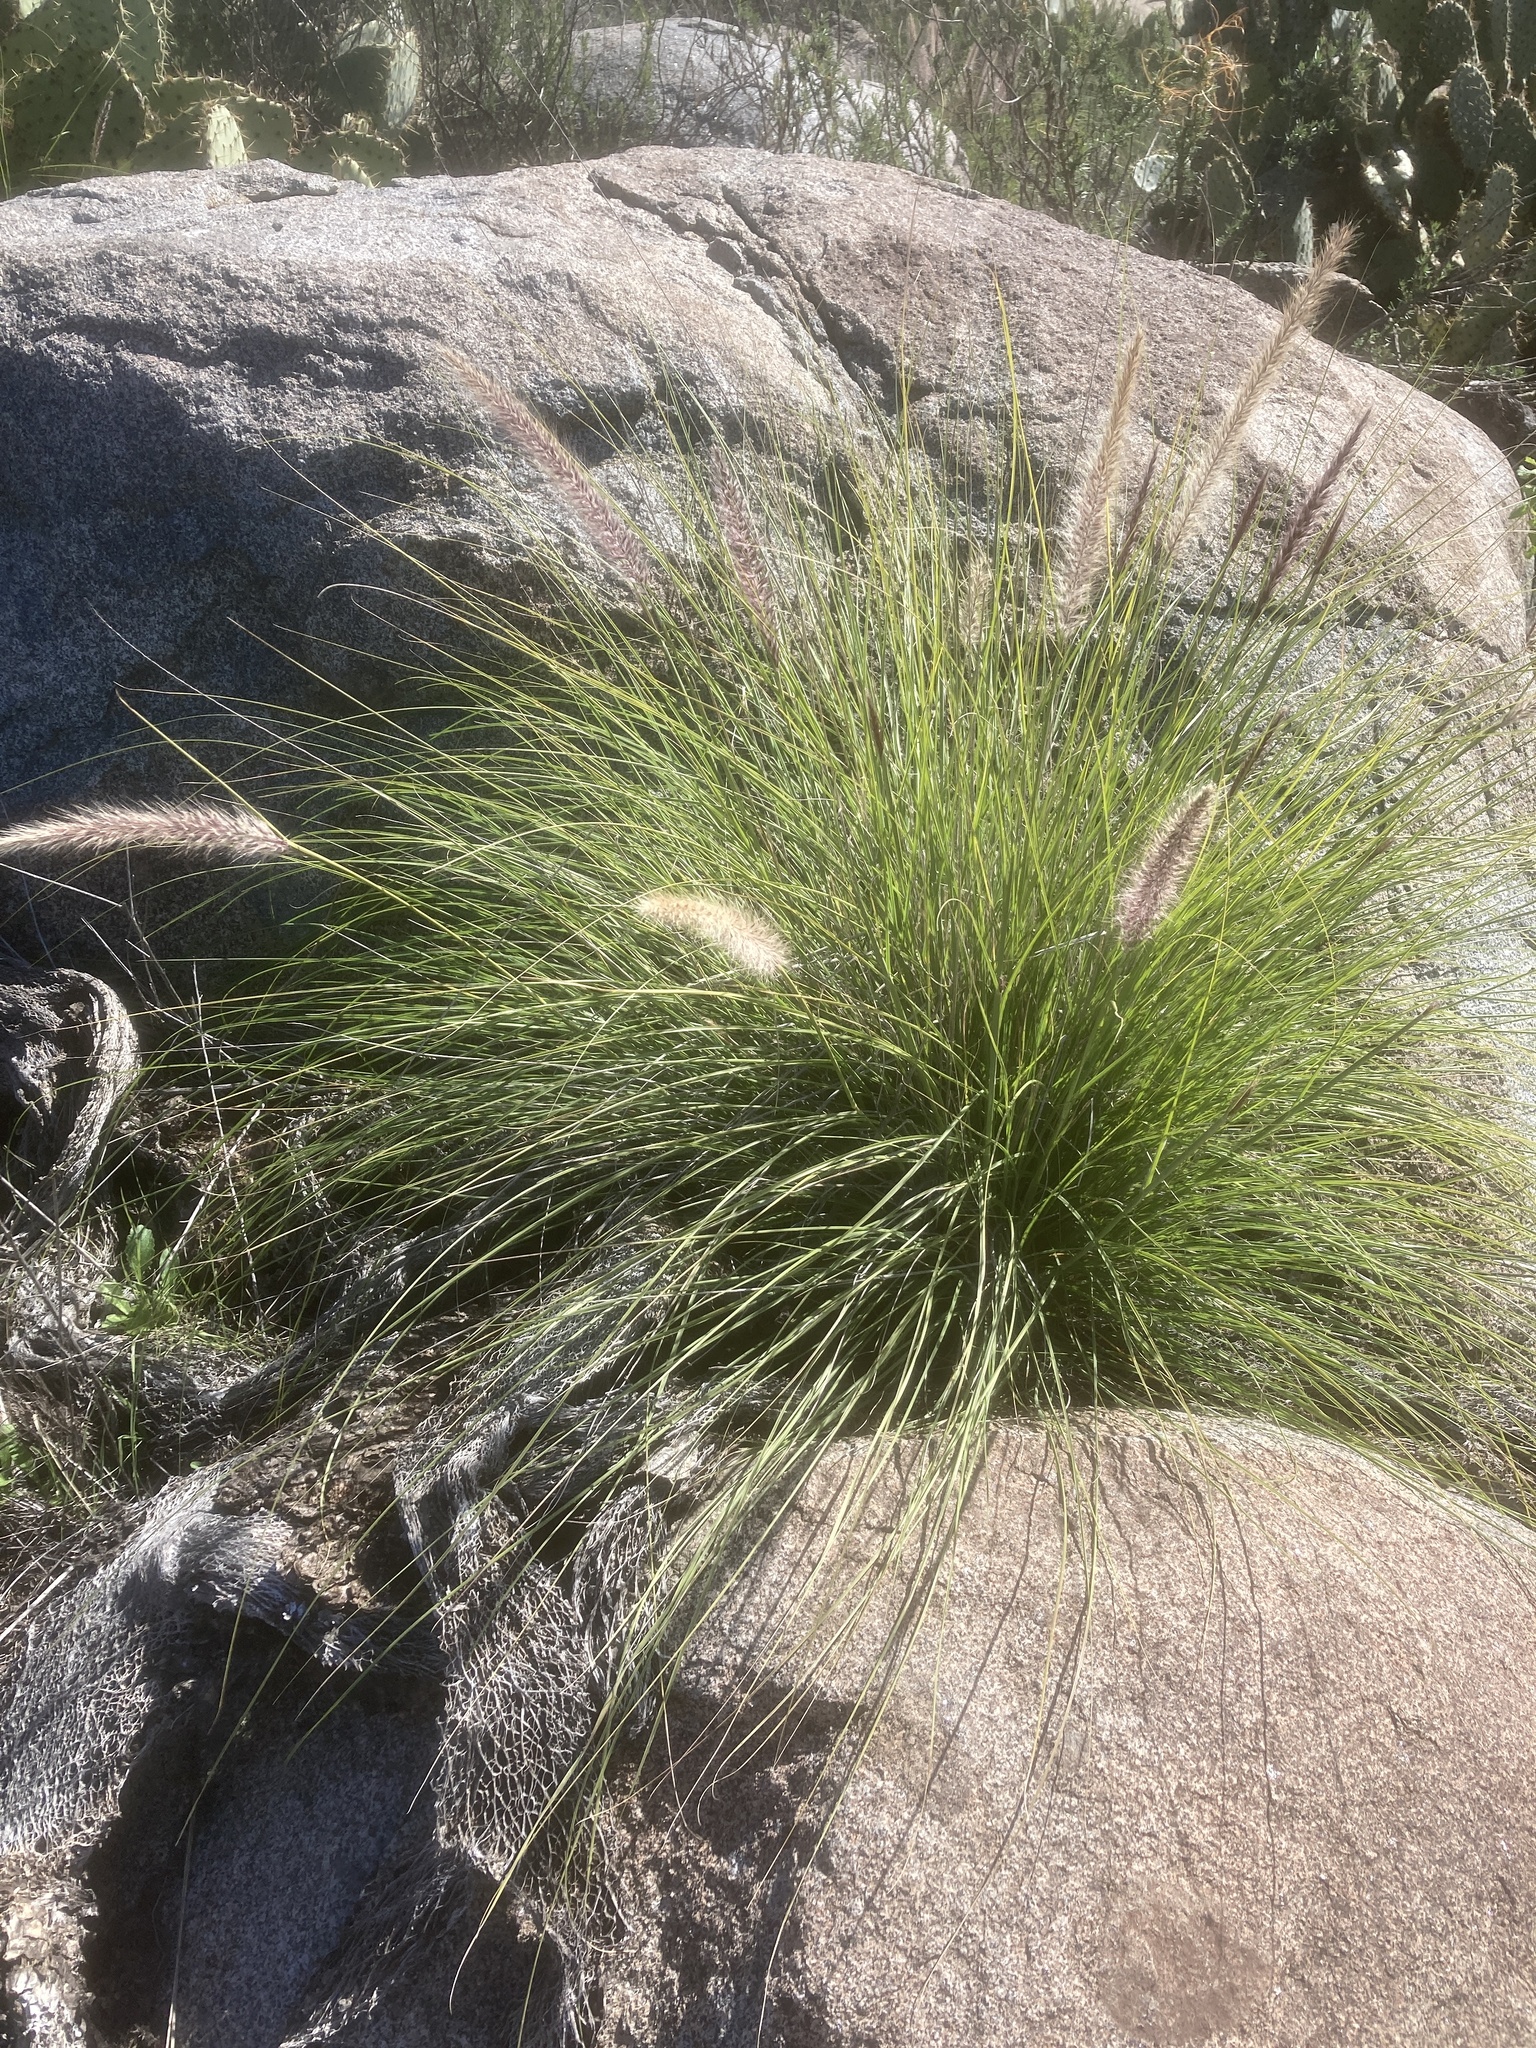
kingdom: Plantae
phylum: Tracheophyta
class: Liliopsida
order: Poales
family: Poaceae
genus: Cenchrus
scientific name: Cenchrus setaceus
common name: Crimson fountaingrass
